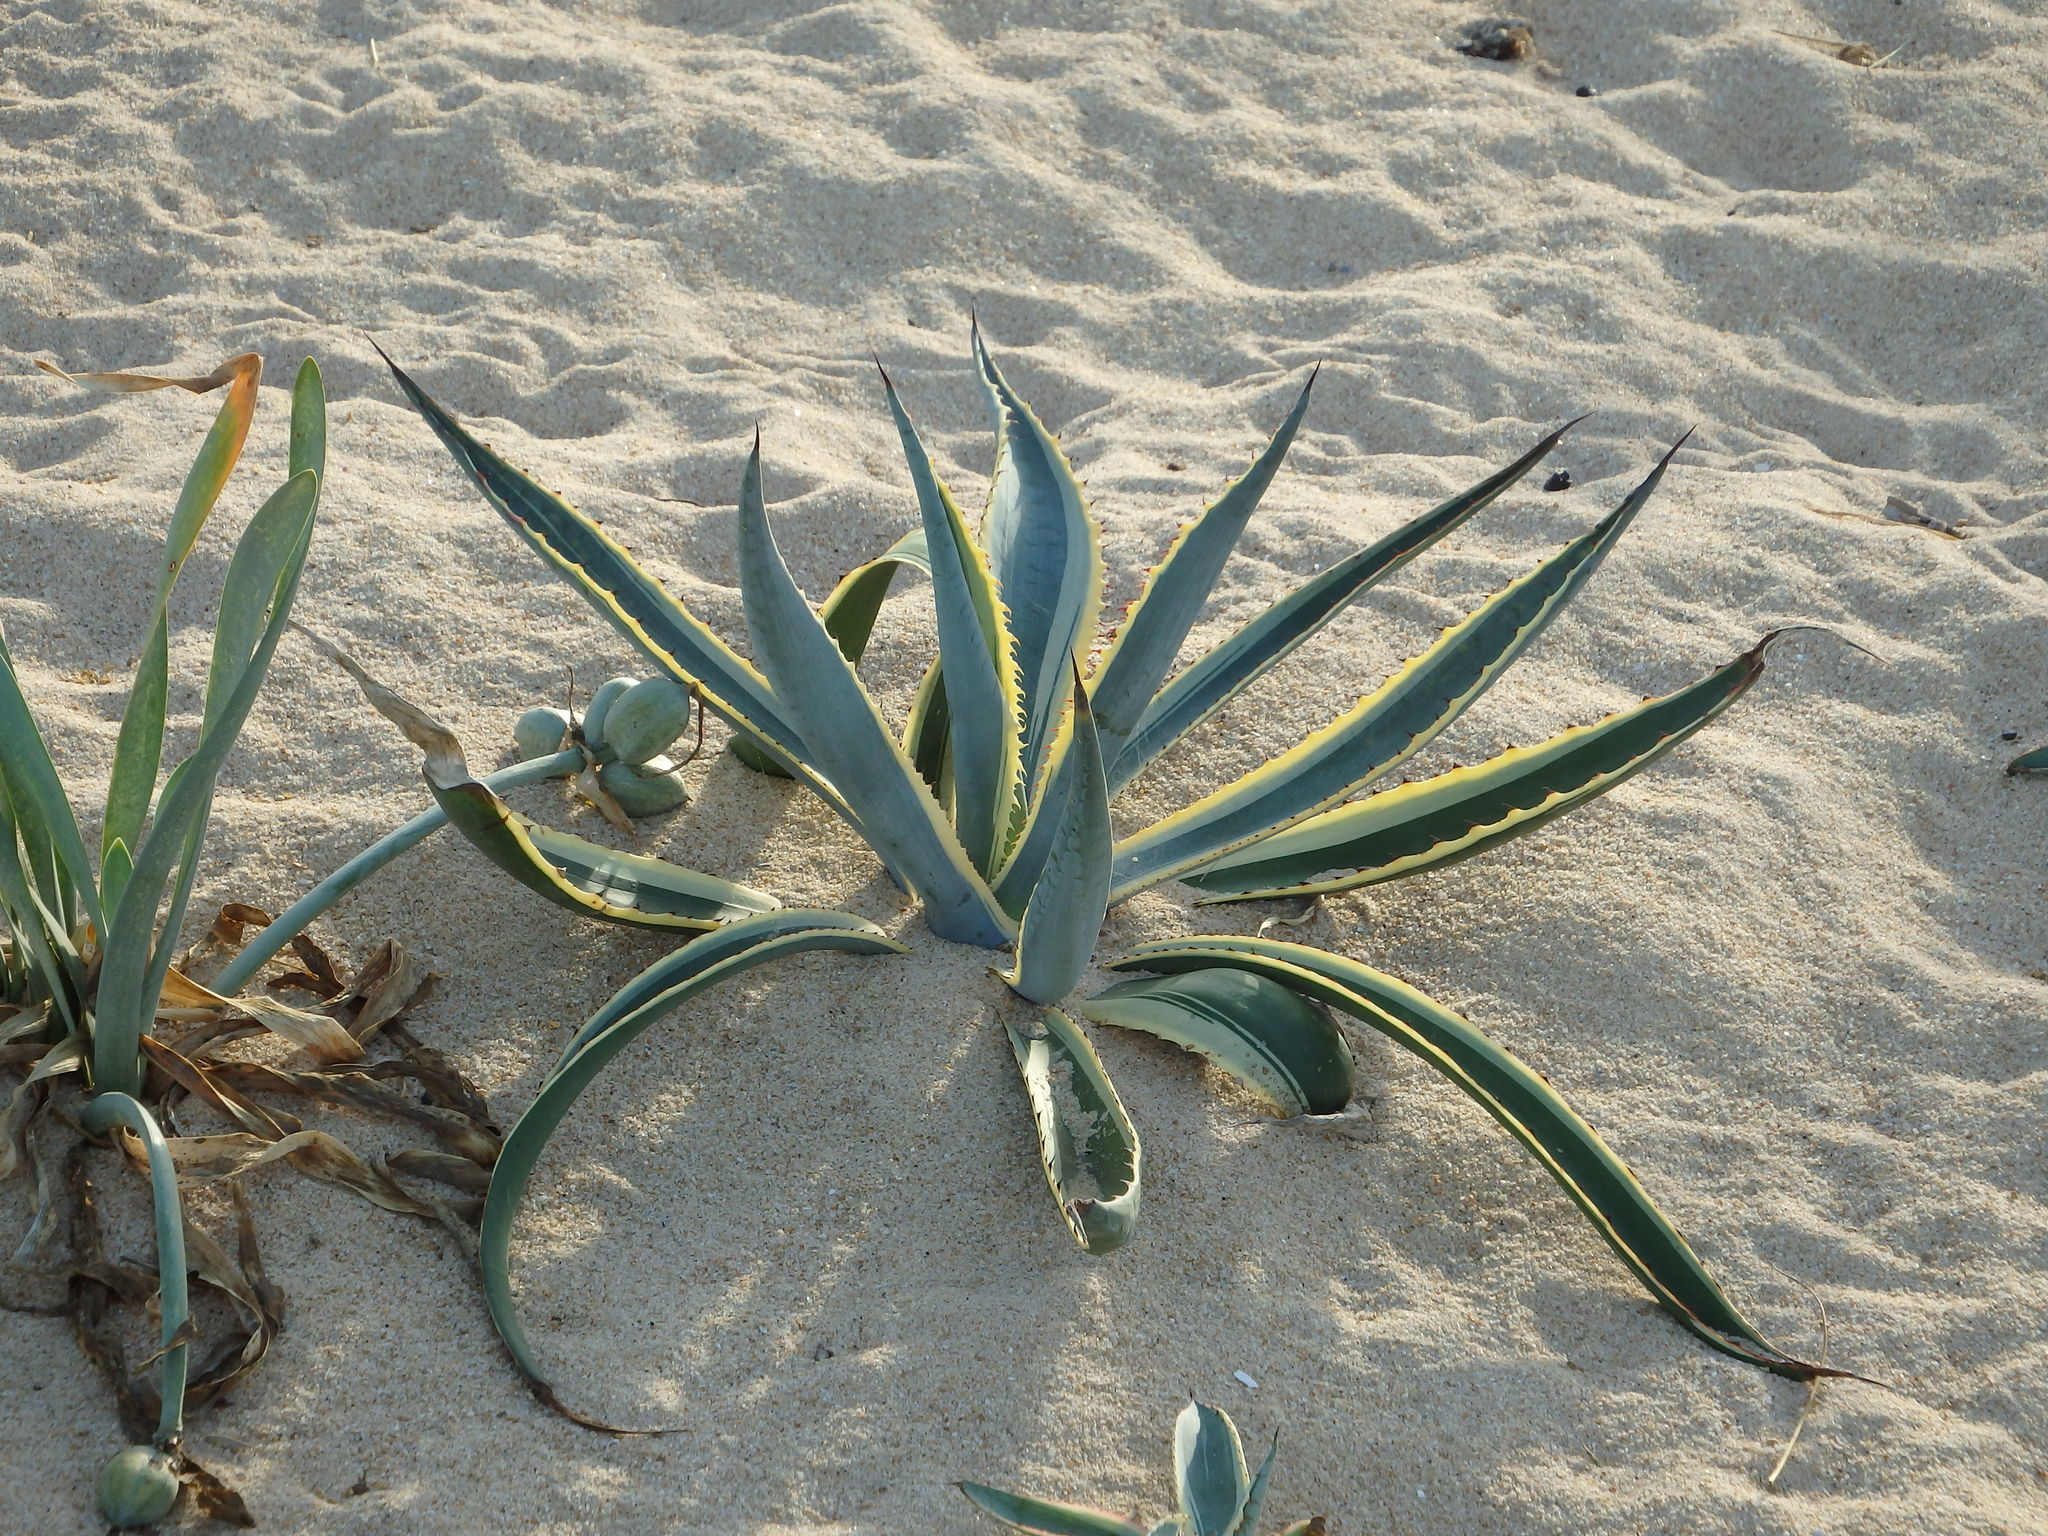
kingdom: Plantae
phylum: Tracheophyta
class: Liliopsida
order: Asparagales
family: Asparagaceae
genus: Agave
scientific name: Agave americana
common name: Centuryplant
